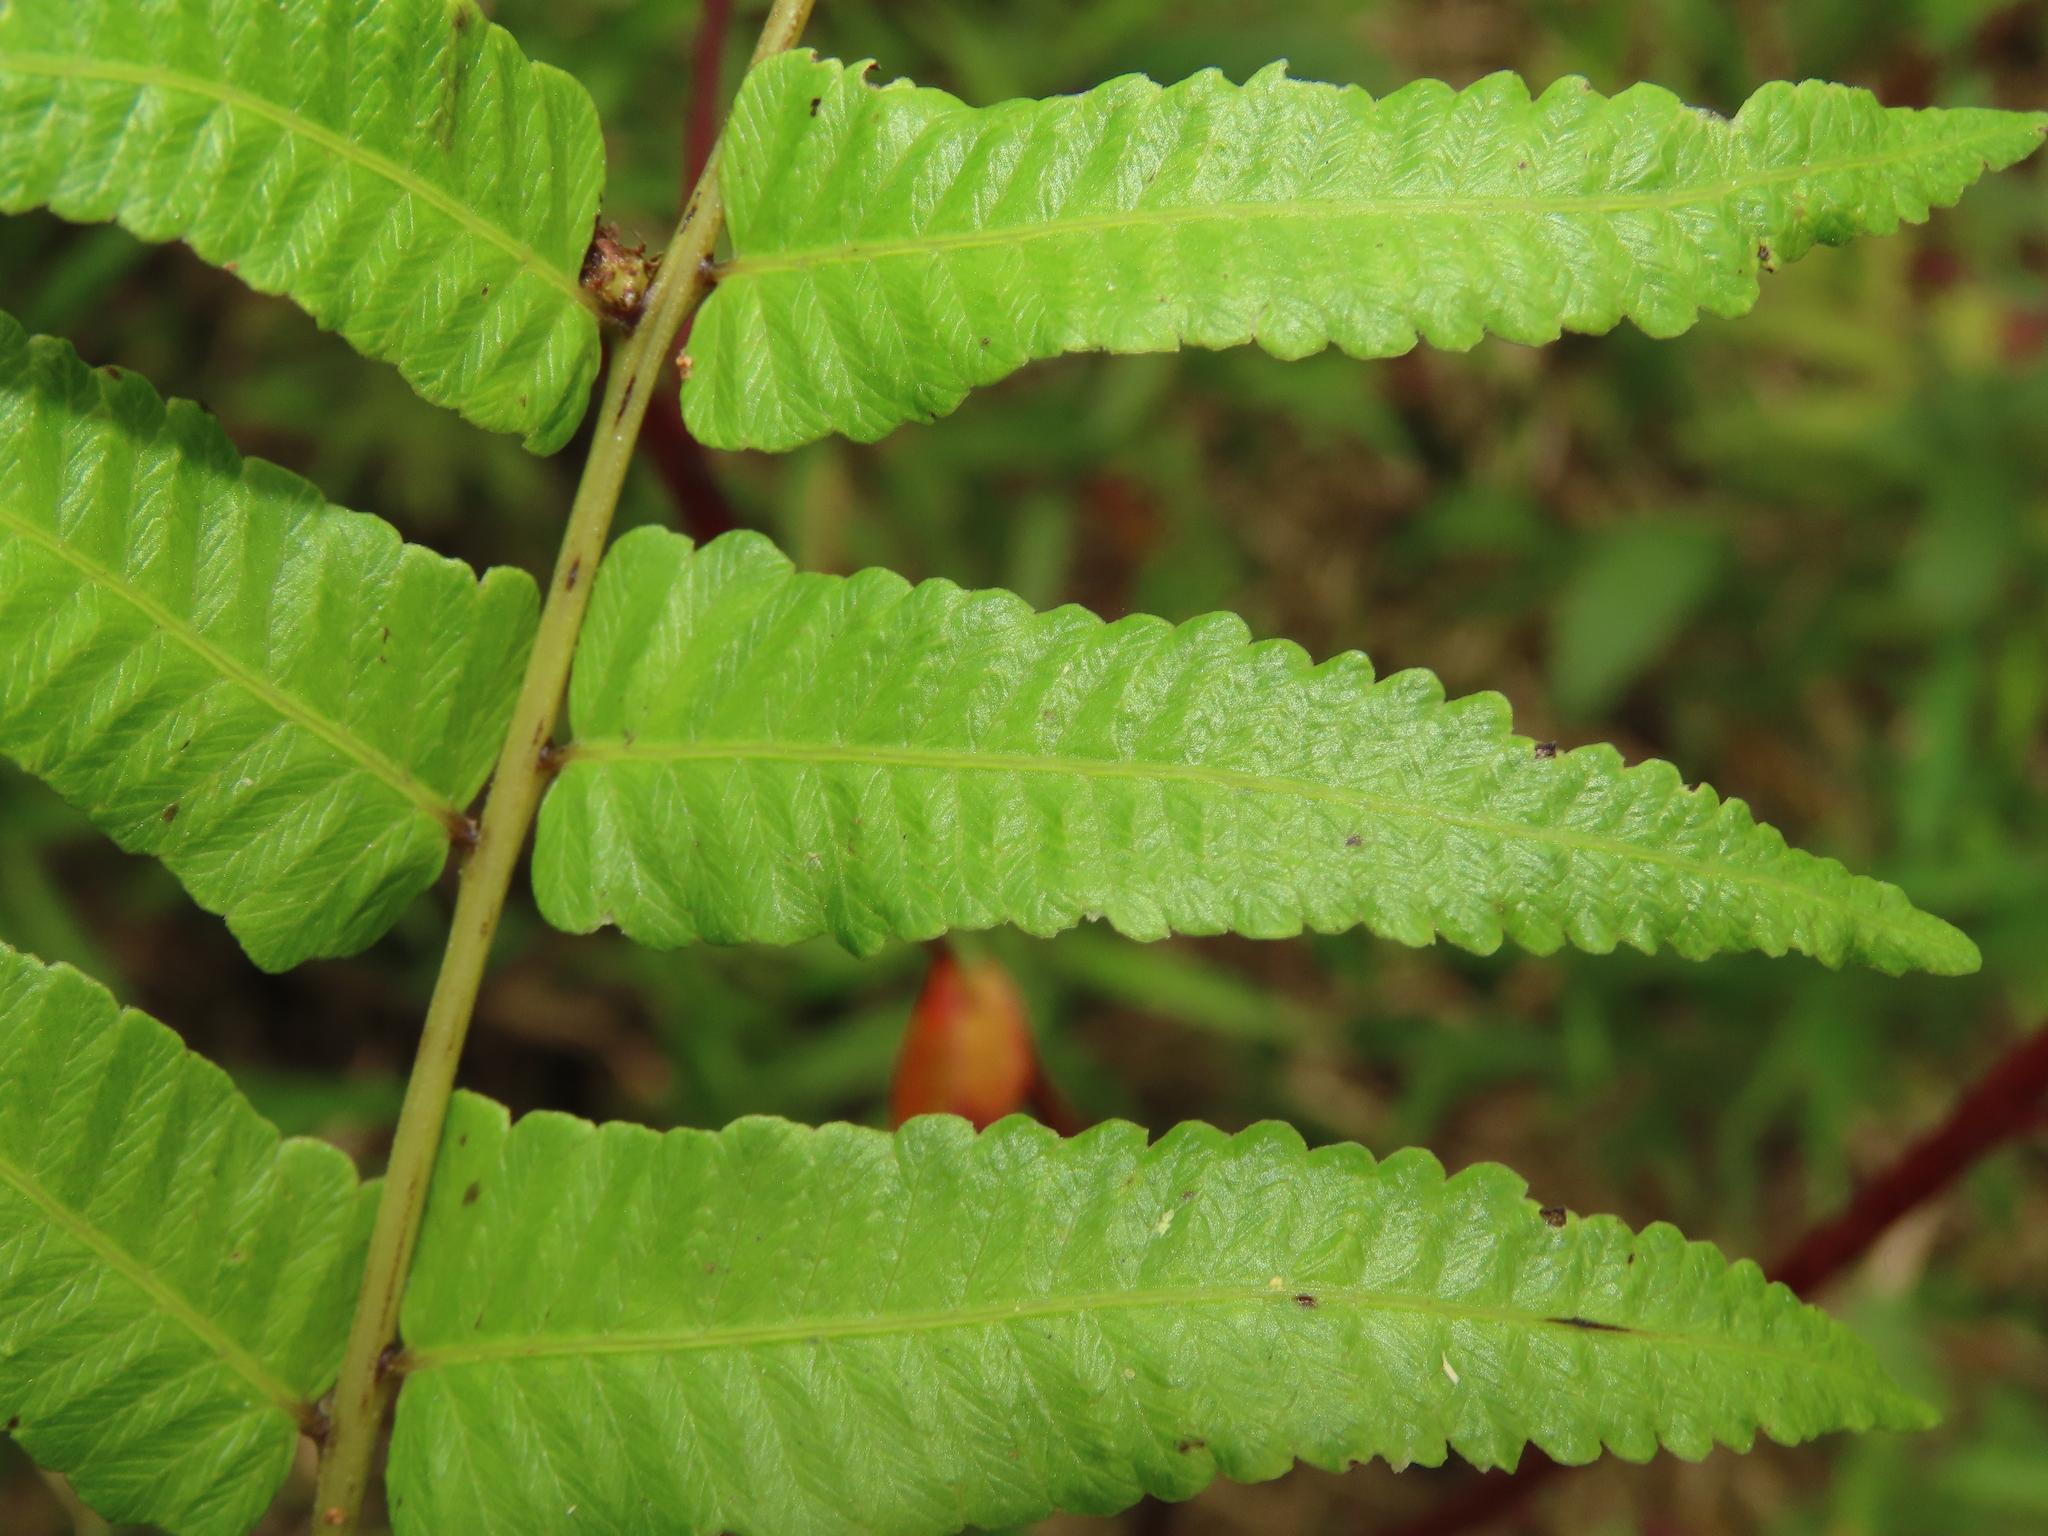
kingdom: Plantae
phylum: Tracheophyta
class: Polypodiopsida
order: Polypodiales
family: Thelypteridaceae
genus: Ampelopteris
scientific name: Ampelopteris prolifera
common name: Riverine scrambler
